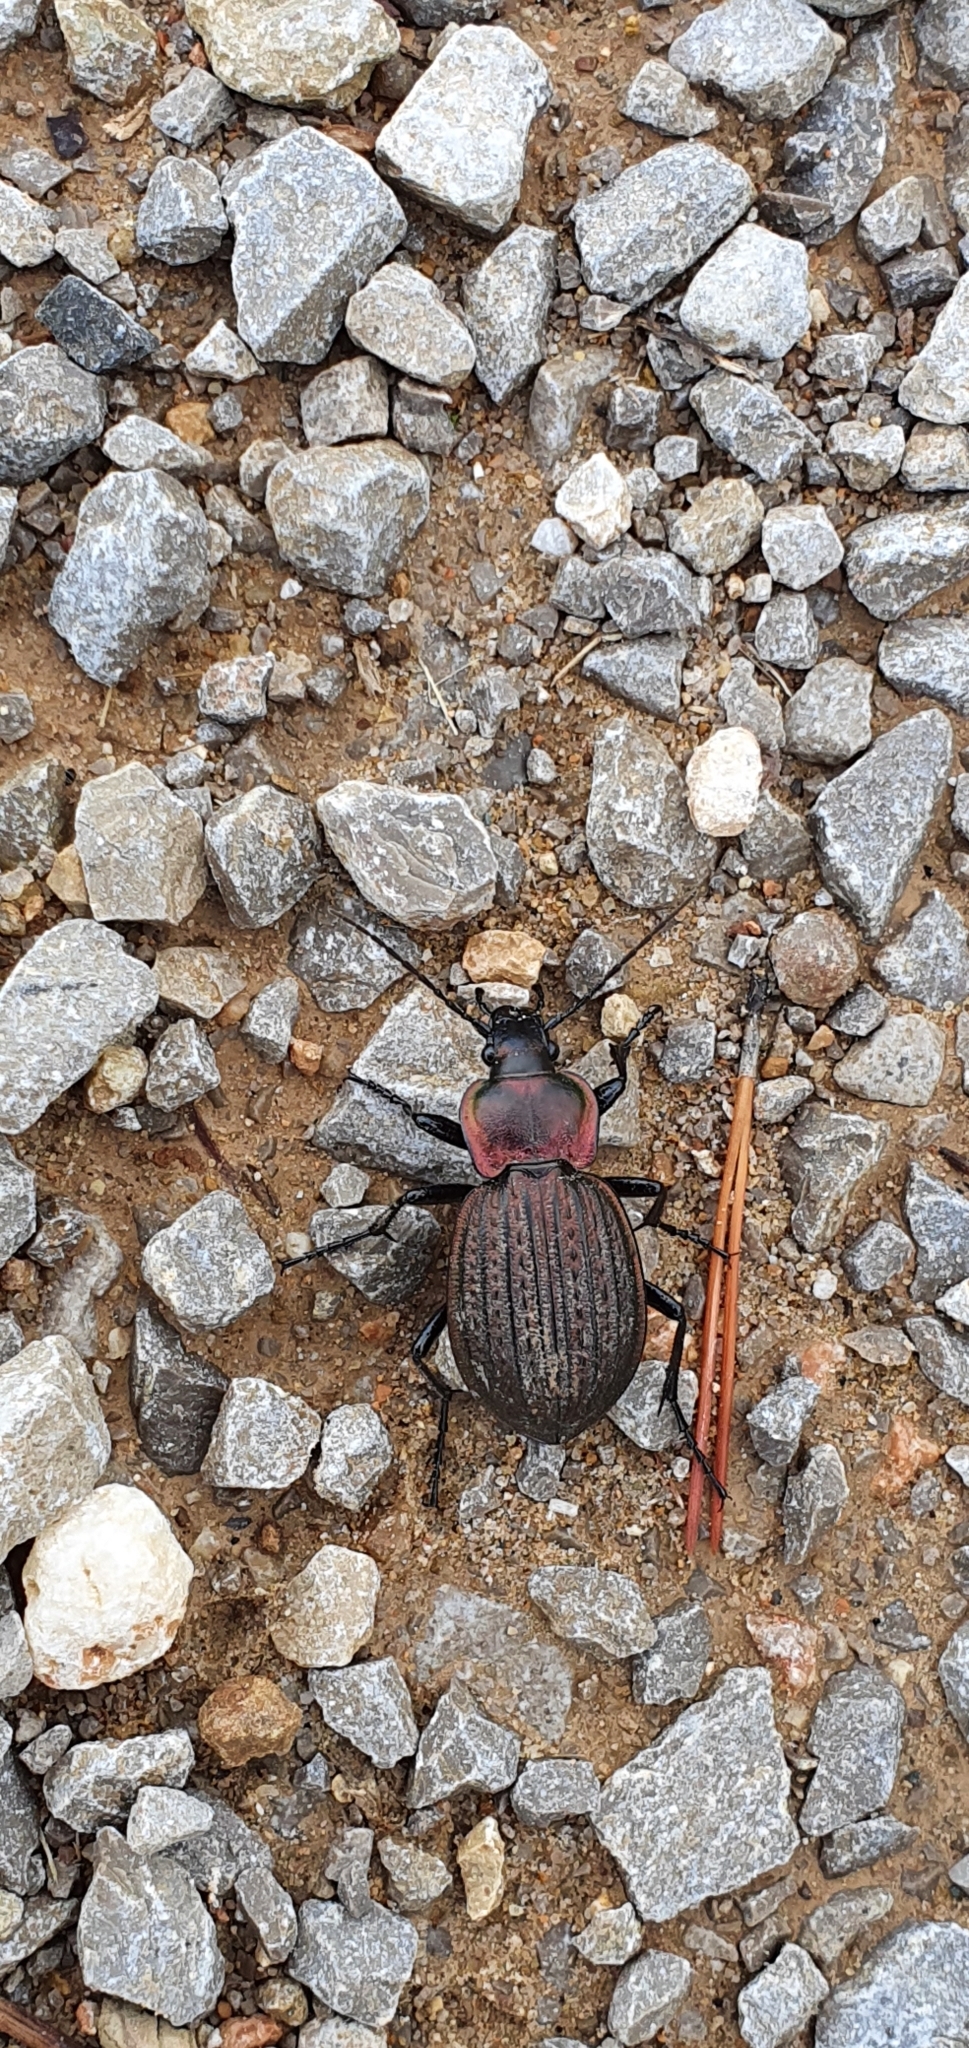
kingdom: Animalia
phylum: Arthropoda
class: Insecta
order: Coleoptera
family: Carabidae
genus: Carabus
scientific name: Carabus faminii
